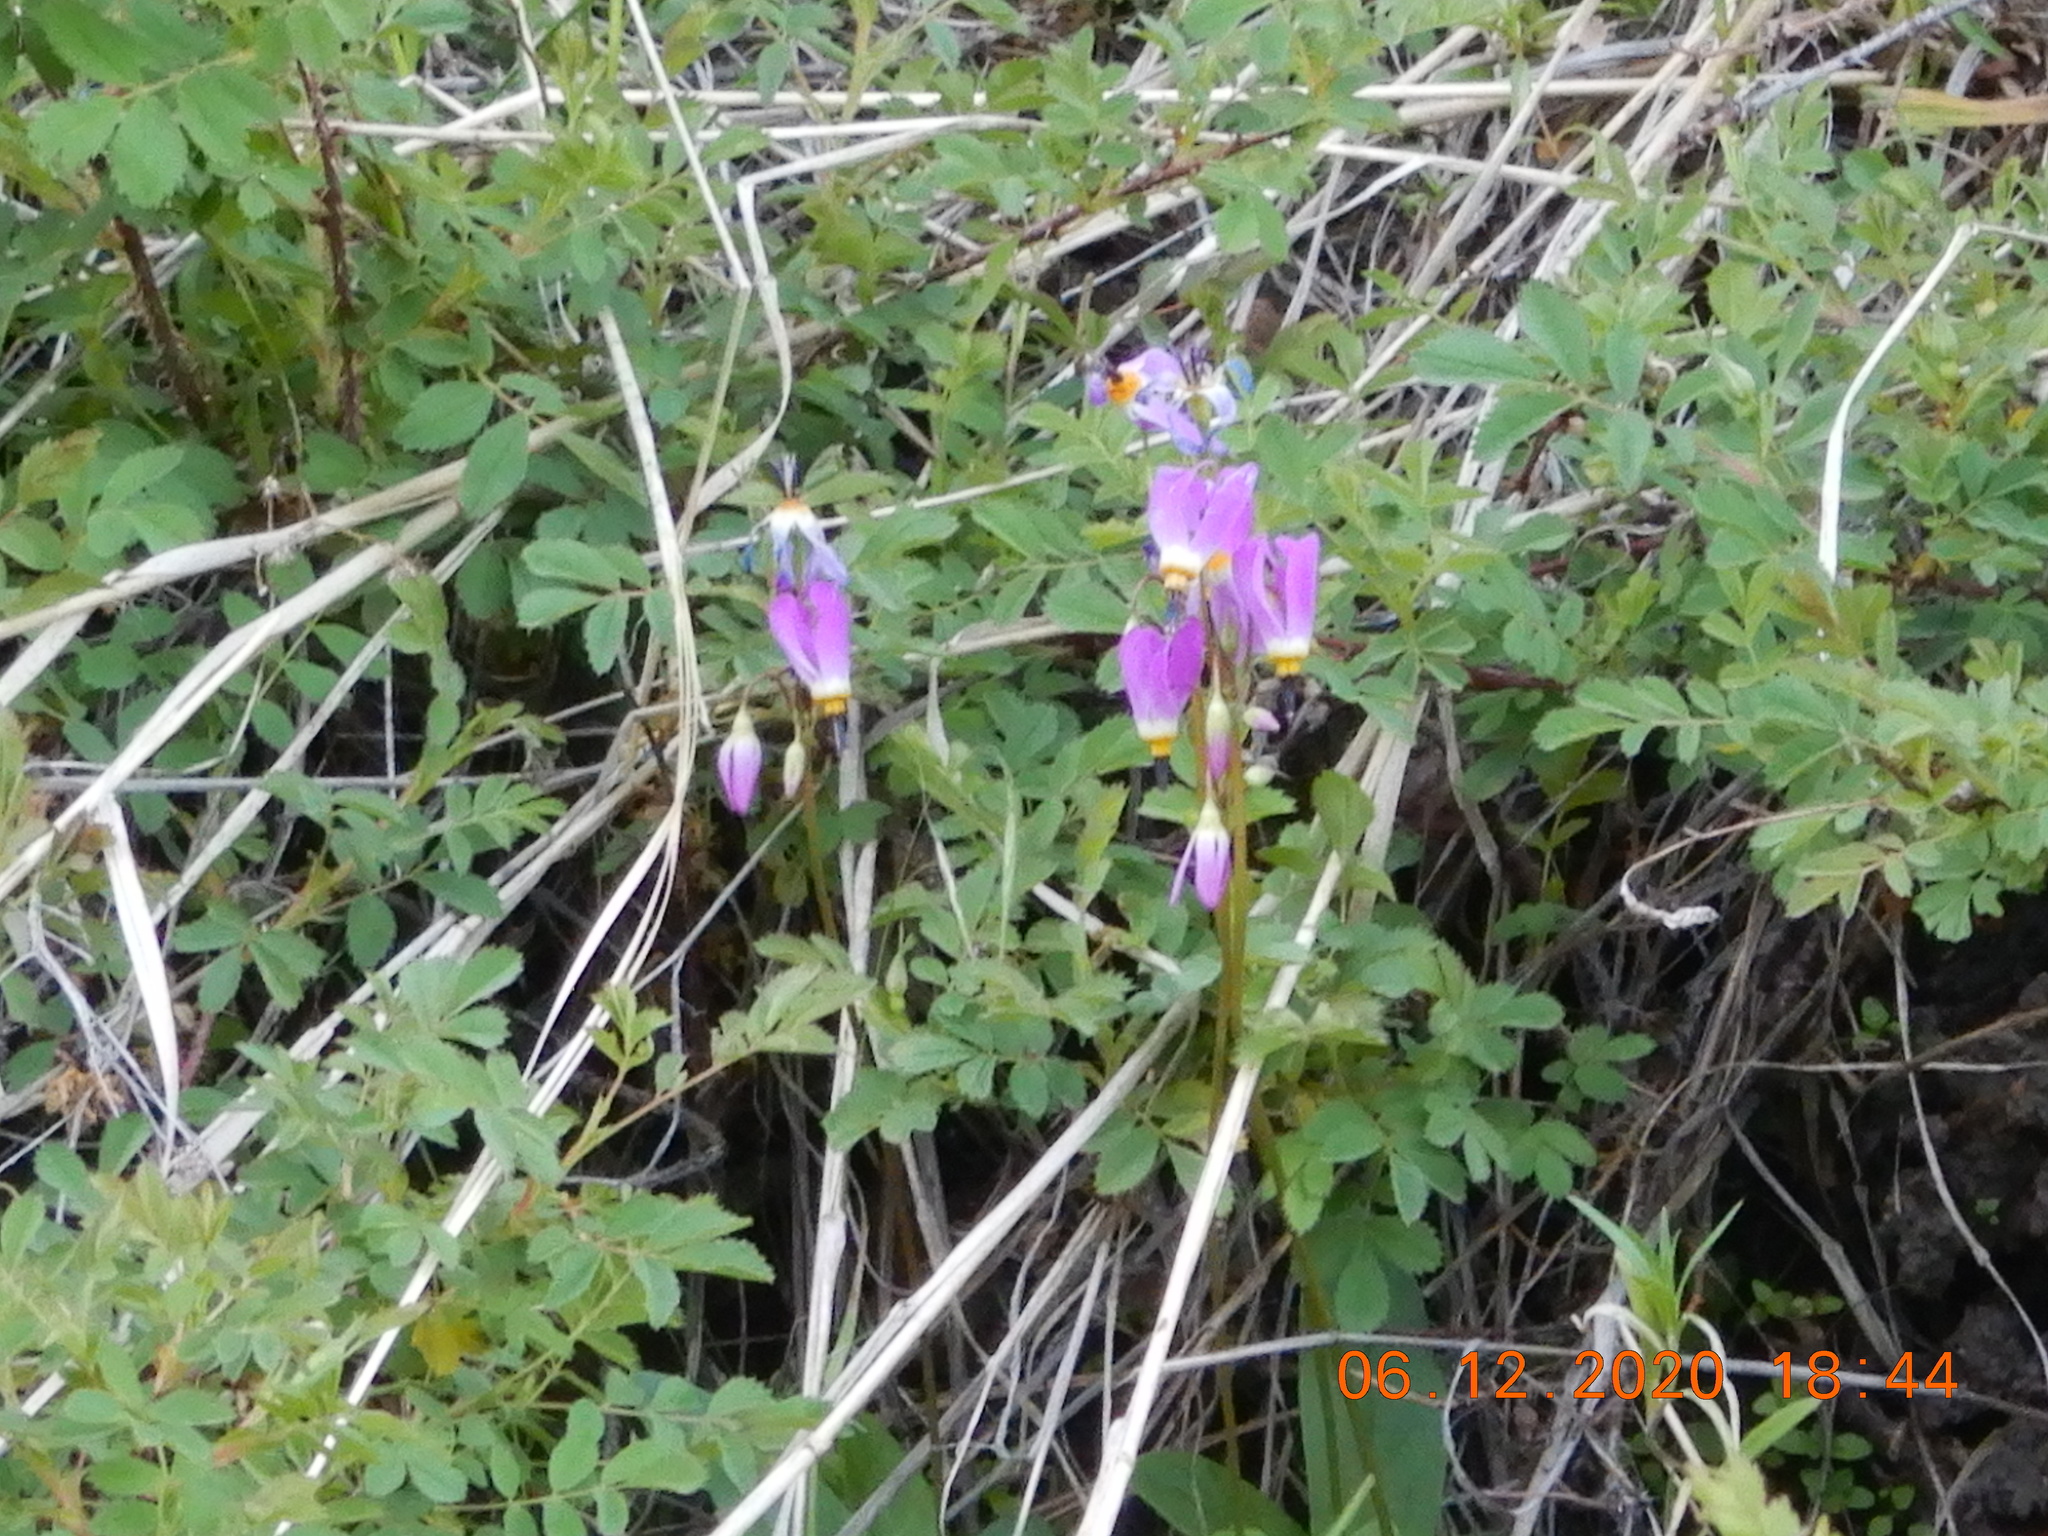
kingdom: Plantae
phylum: Tracheophyta
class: Magnoliopsida
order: Ericales
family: Primulaceae
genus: Dodecatheon
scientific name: Dodecatheon pulchellum
